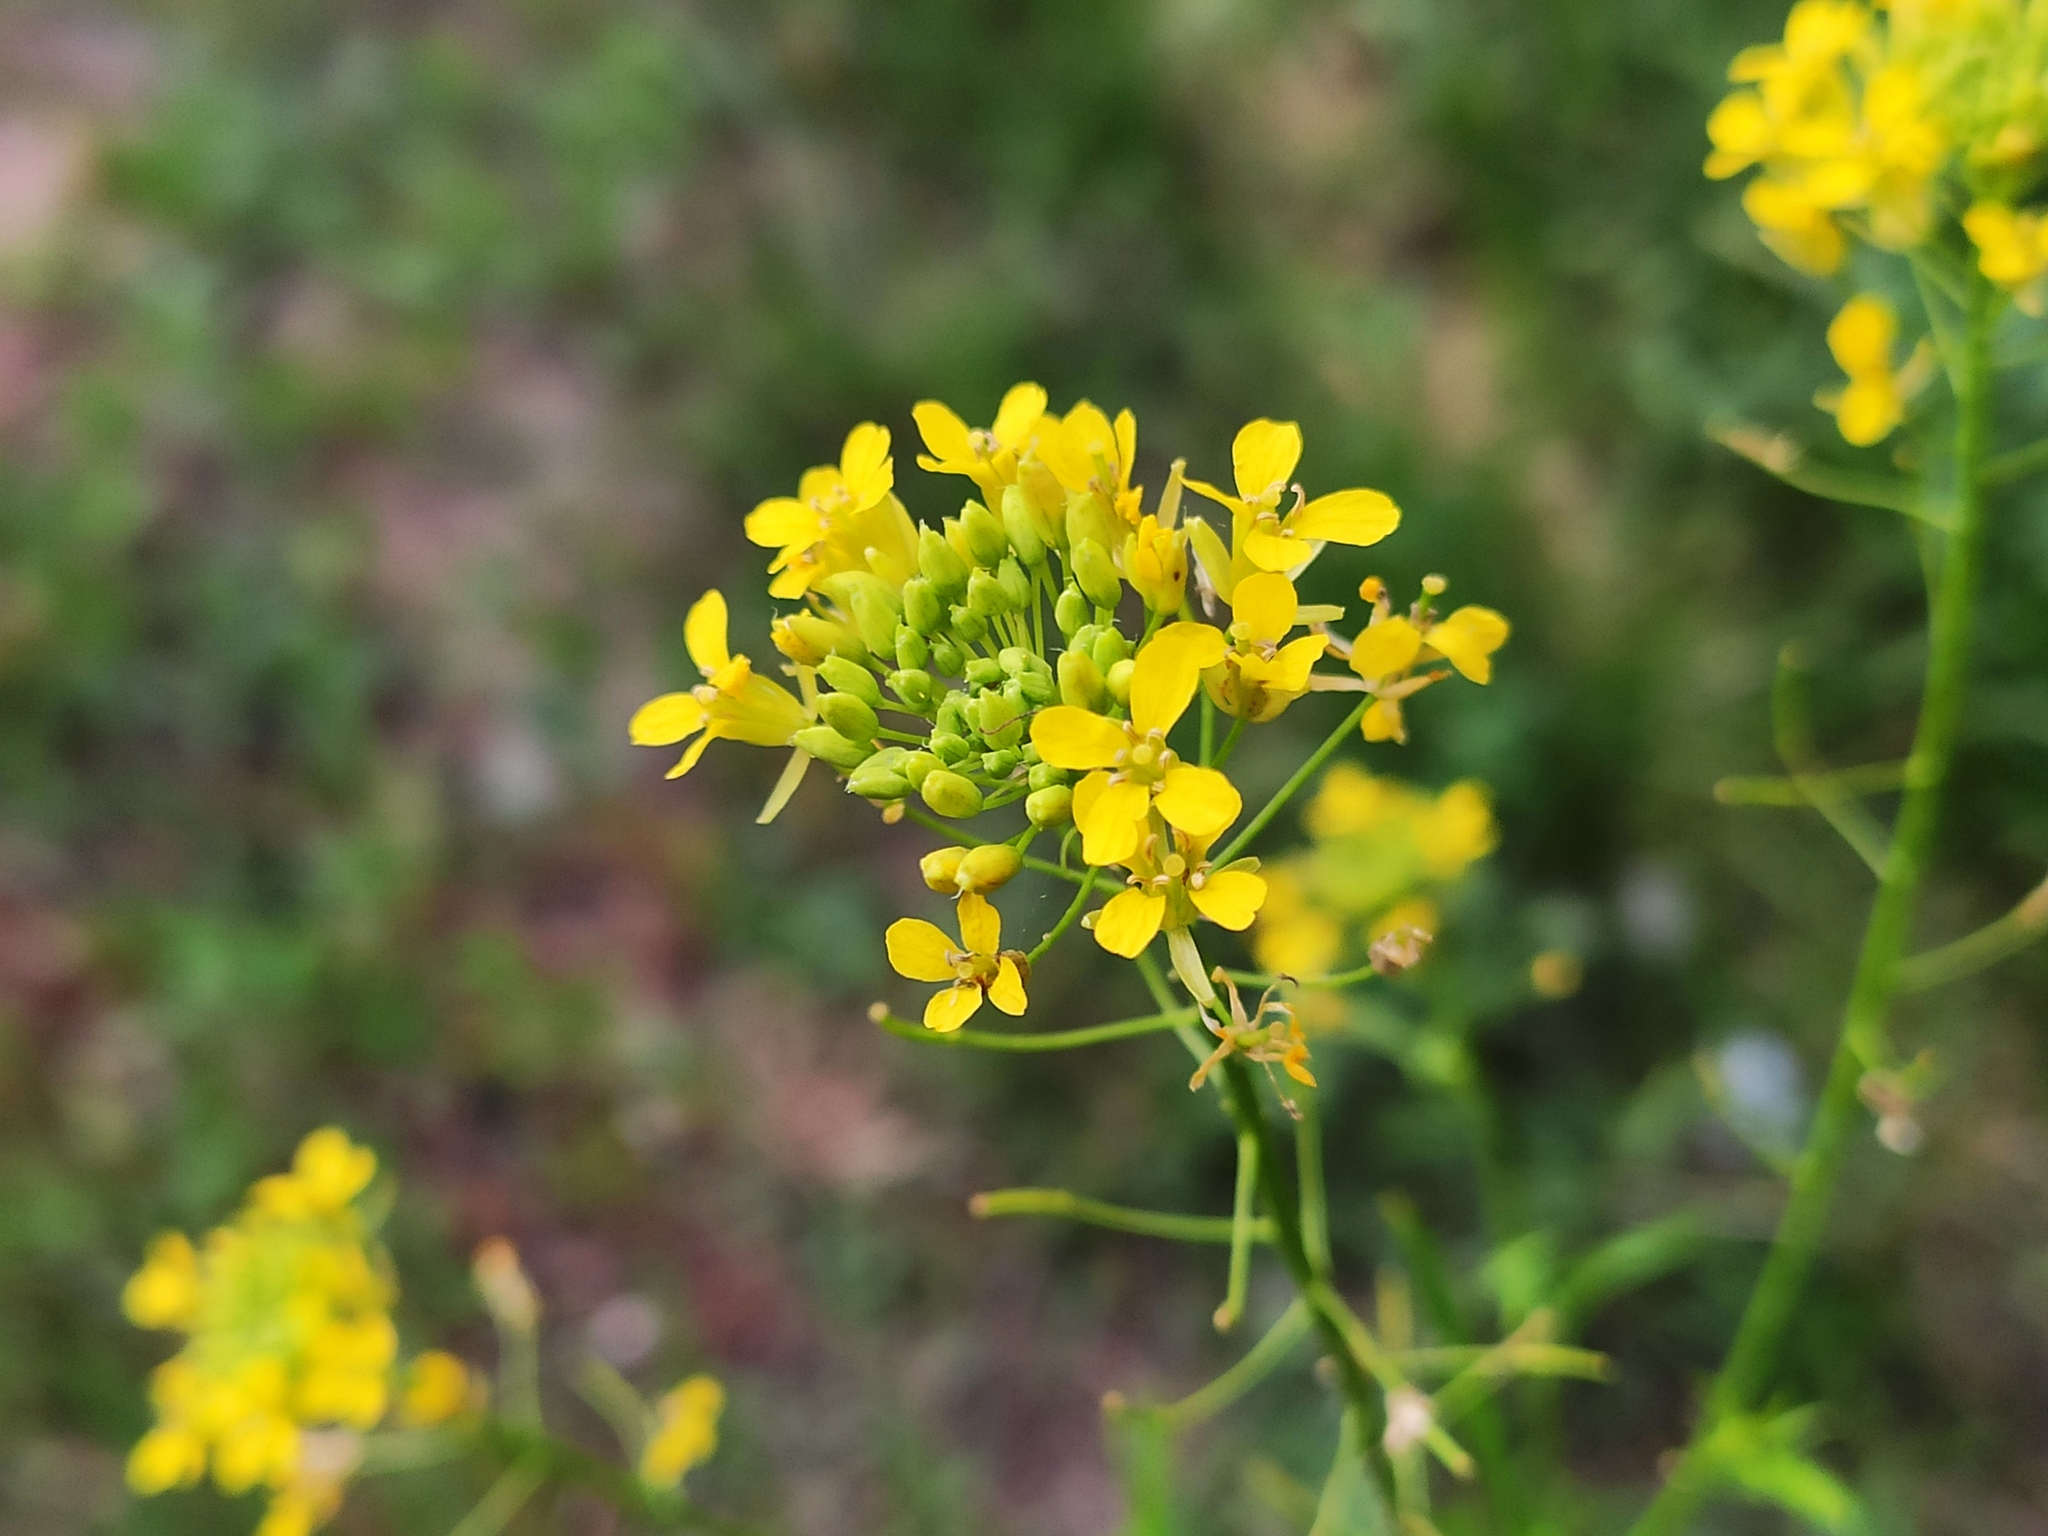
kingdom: Plantae
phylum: Tracheophyta
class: Magnoliopsida
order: Brassicales
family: Brassicaceae
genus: Sisymbrium
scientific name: Sisymbrium loeselii
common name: False london-rocket
